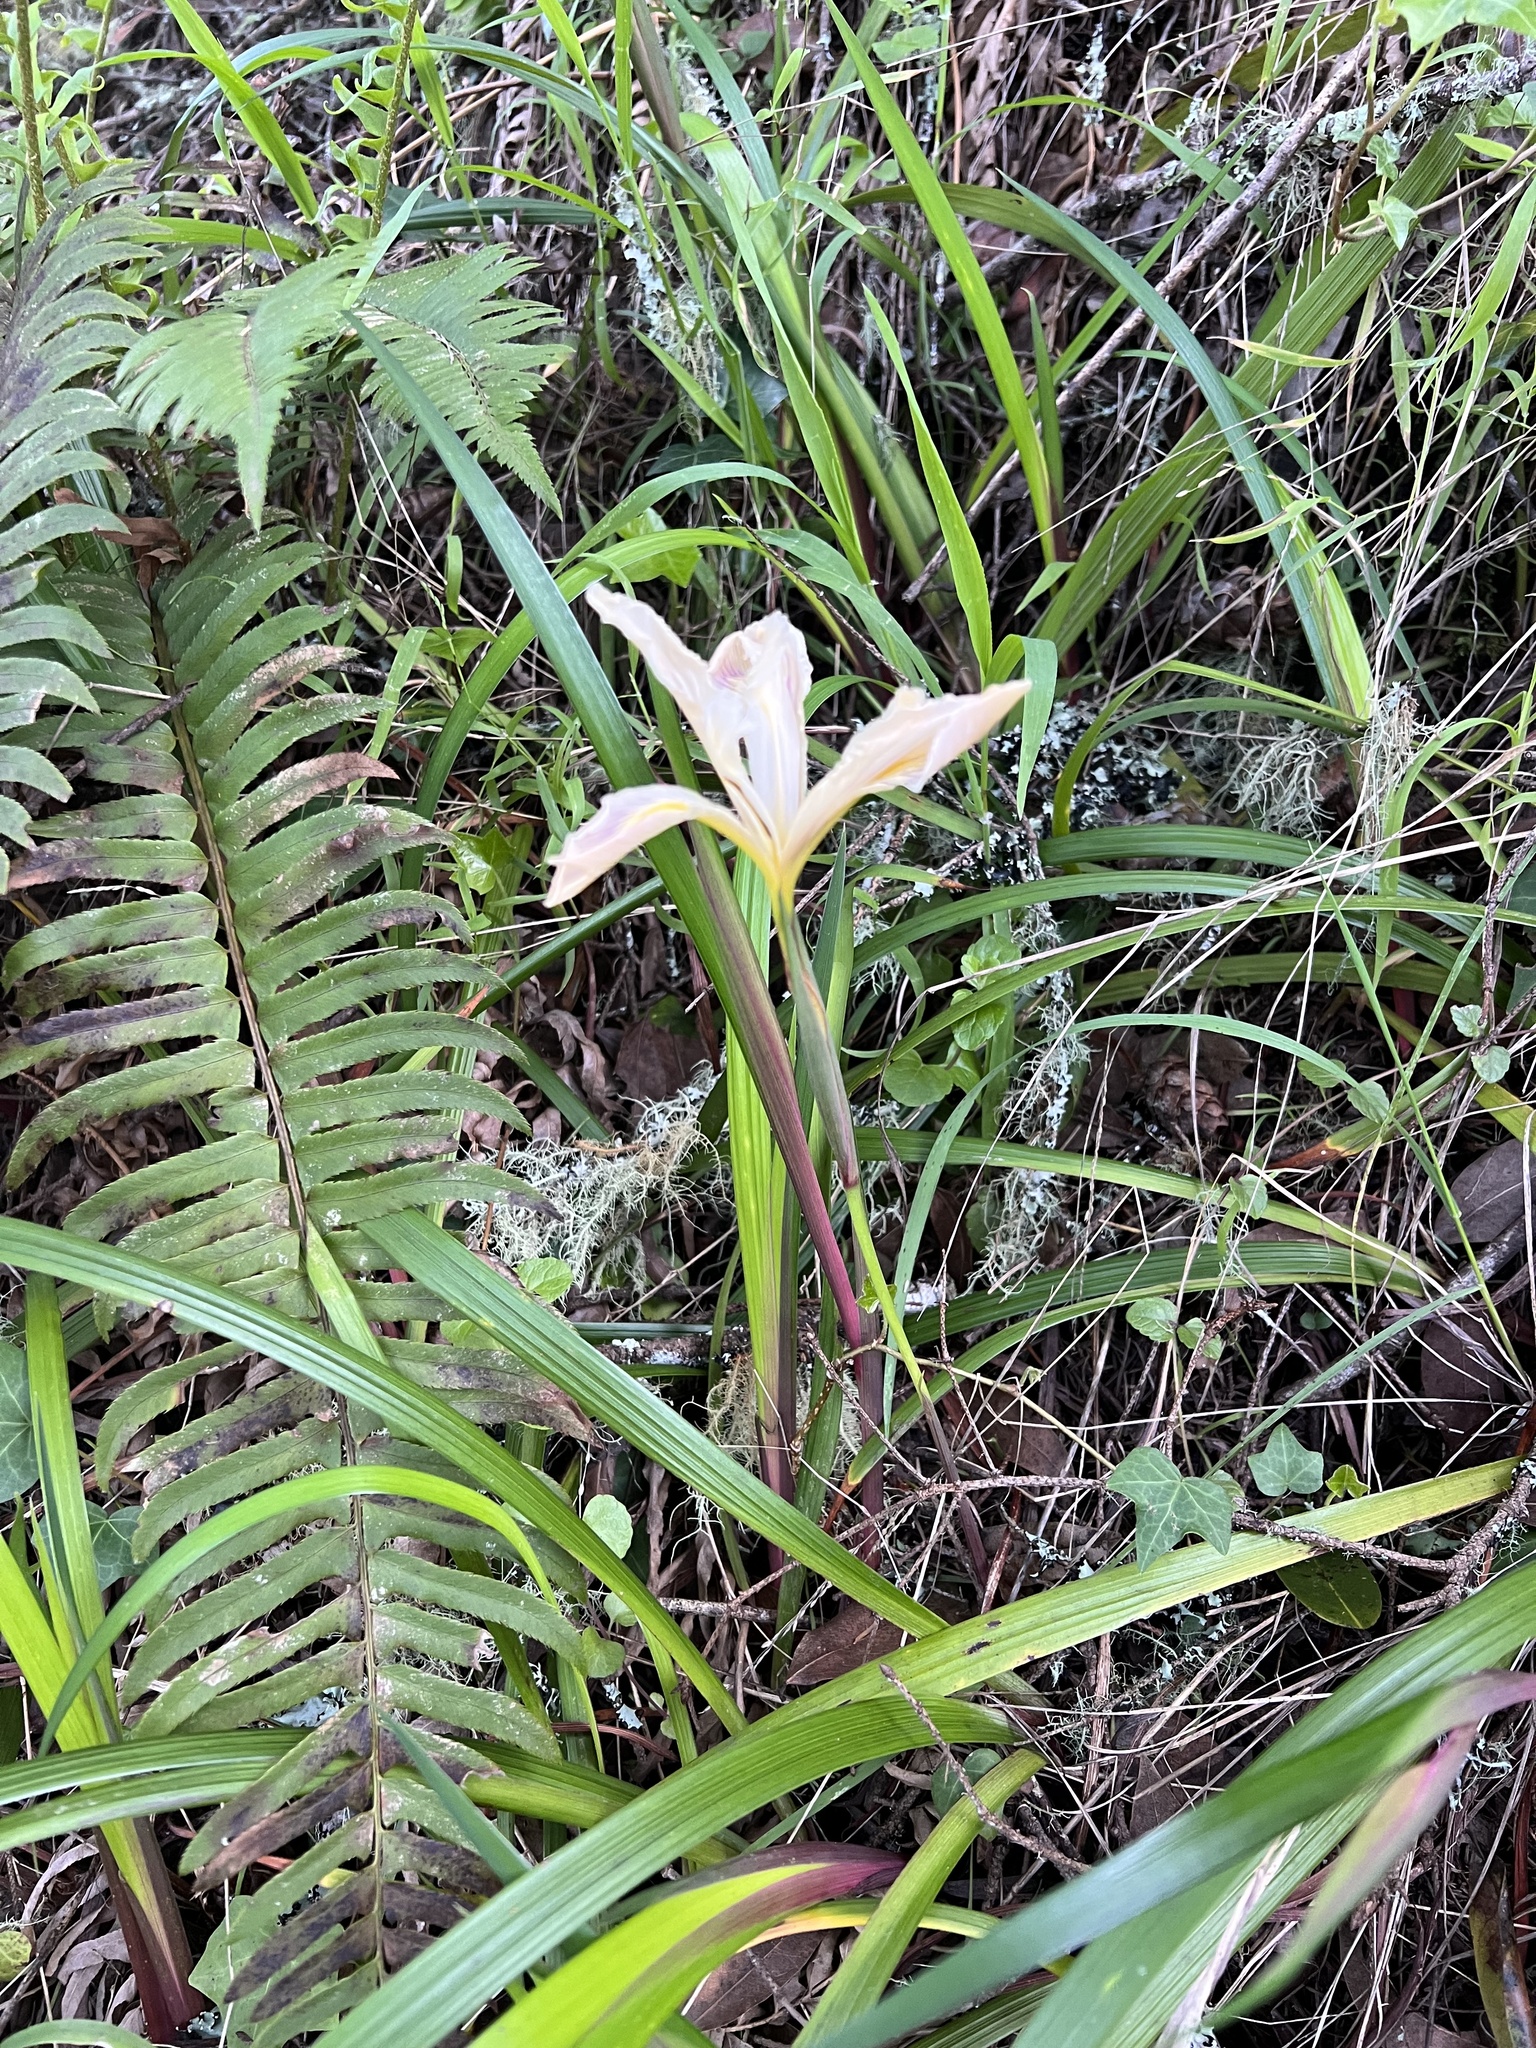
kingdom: Plantae
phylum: Tracheophyta
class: Liliopsida
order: Asparagales
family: Iridaceae
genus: Iris
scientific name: Iris douglasiana
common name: Marin iris
